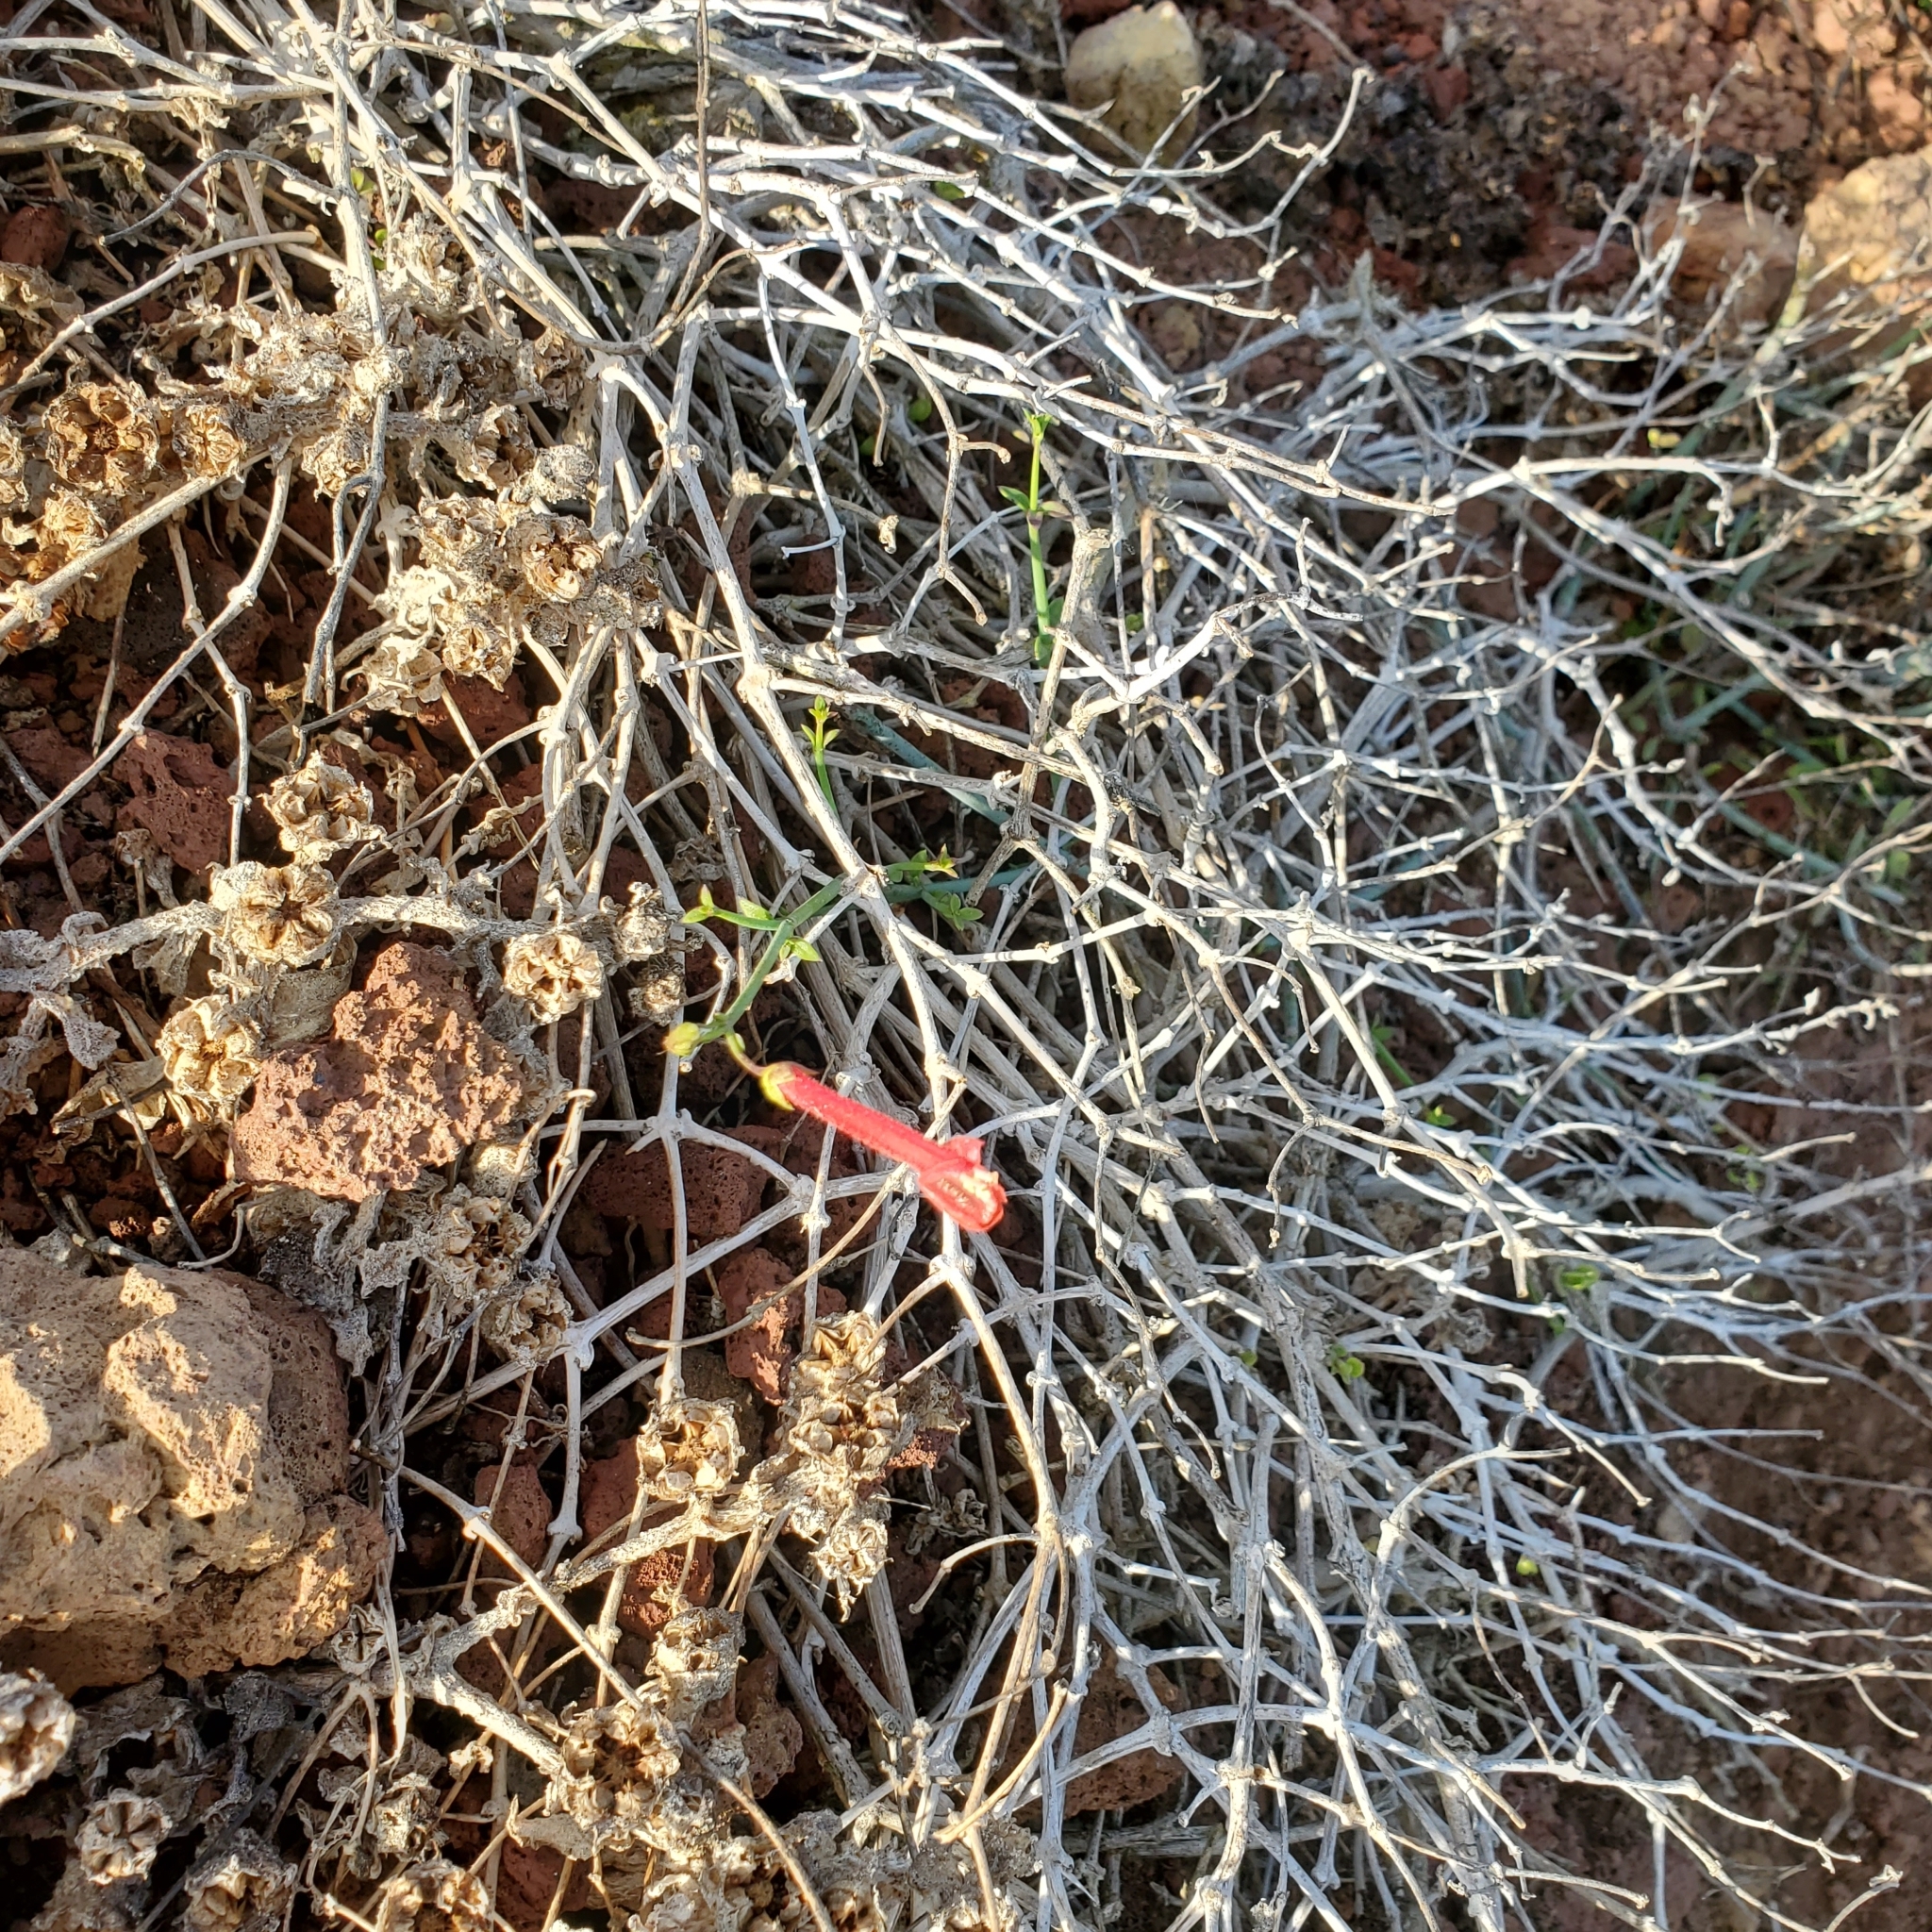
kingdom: Plantae
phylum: Tracheophyta
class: Magnoliopsida
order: Lamiales
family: Plantaginaceae
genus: Gambelia
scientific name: Gambelia juncea
